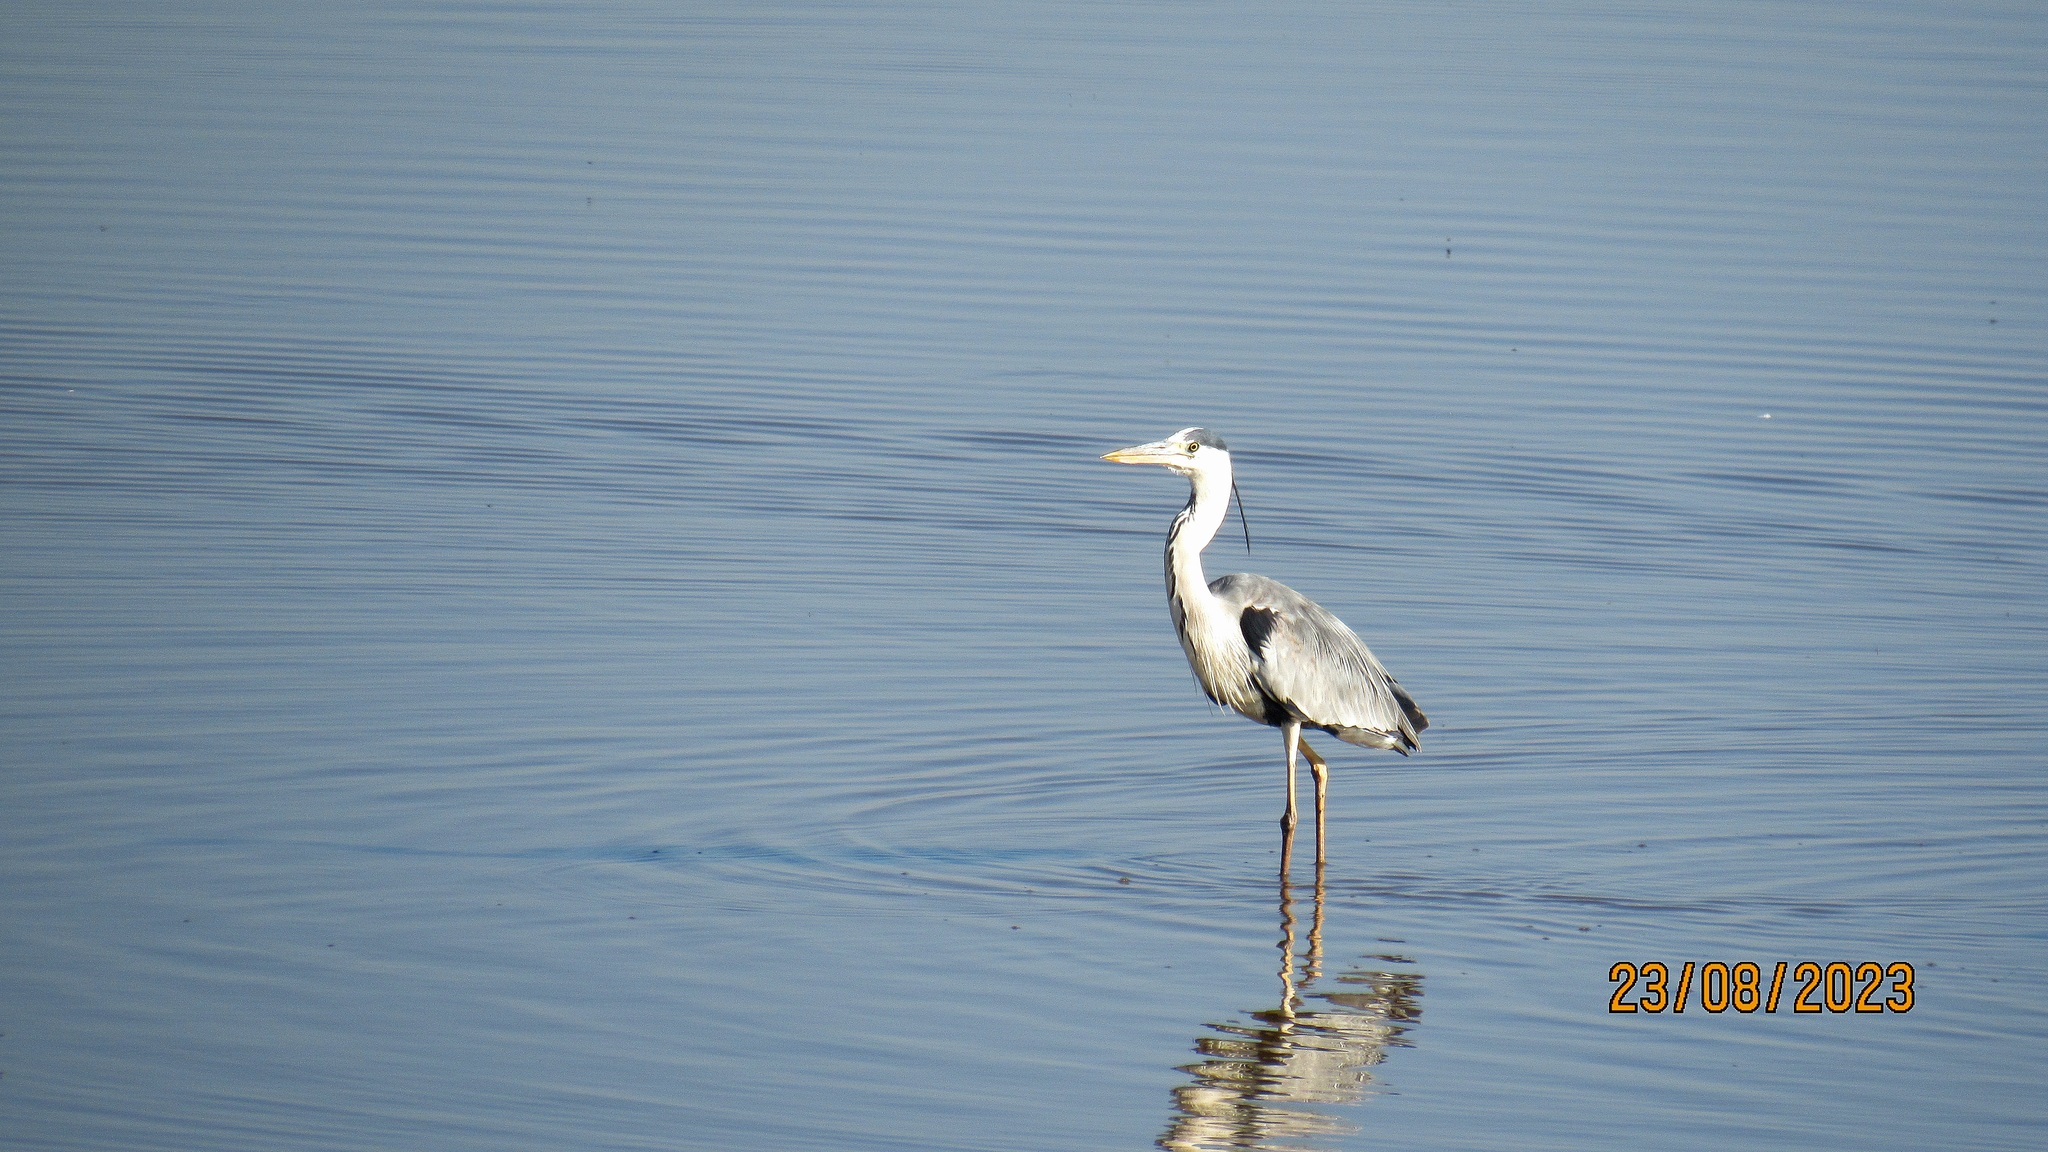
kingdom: Animalia
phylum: Chordata
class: Aves
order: Pelecaniformes
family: Ardeidae
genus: Ardea
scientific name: Ardea cinerea
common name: Grey heron
